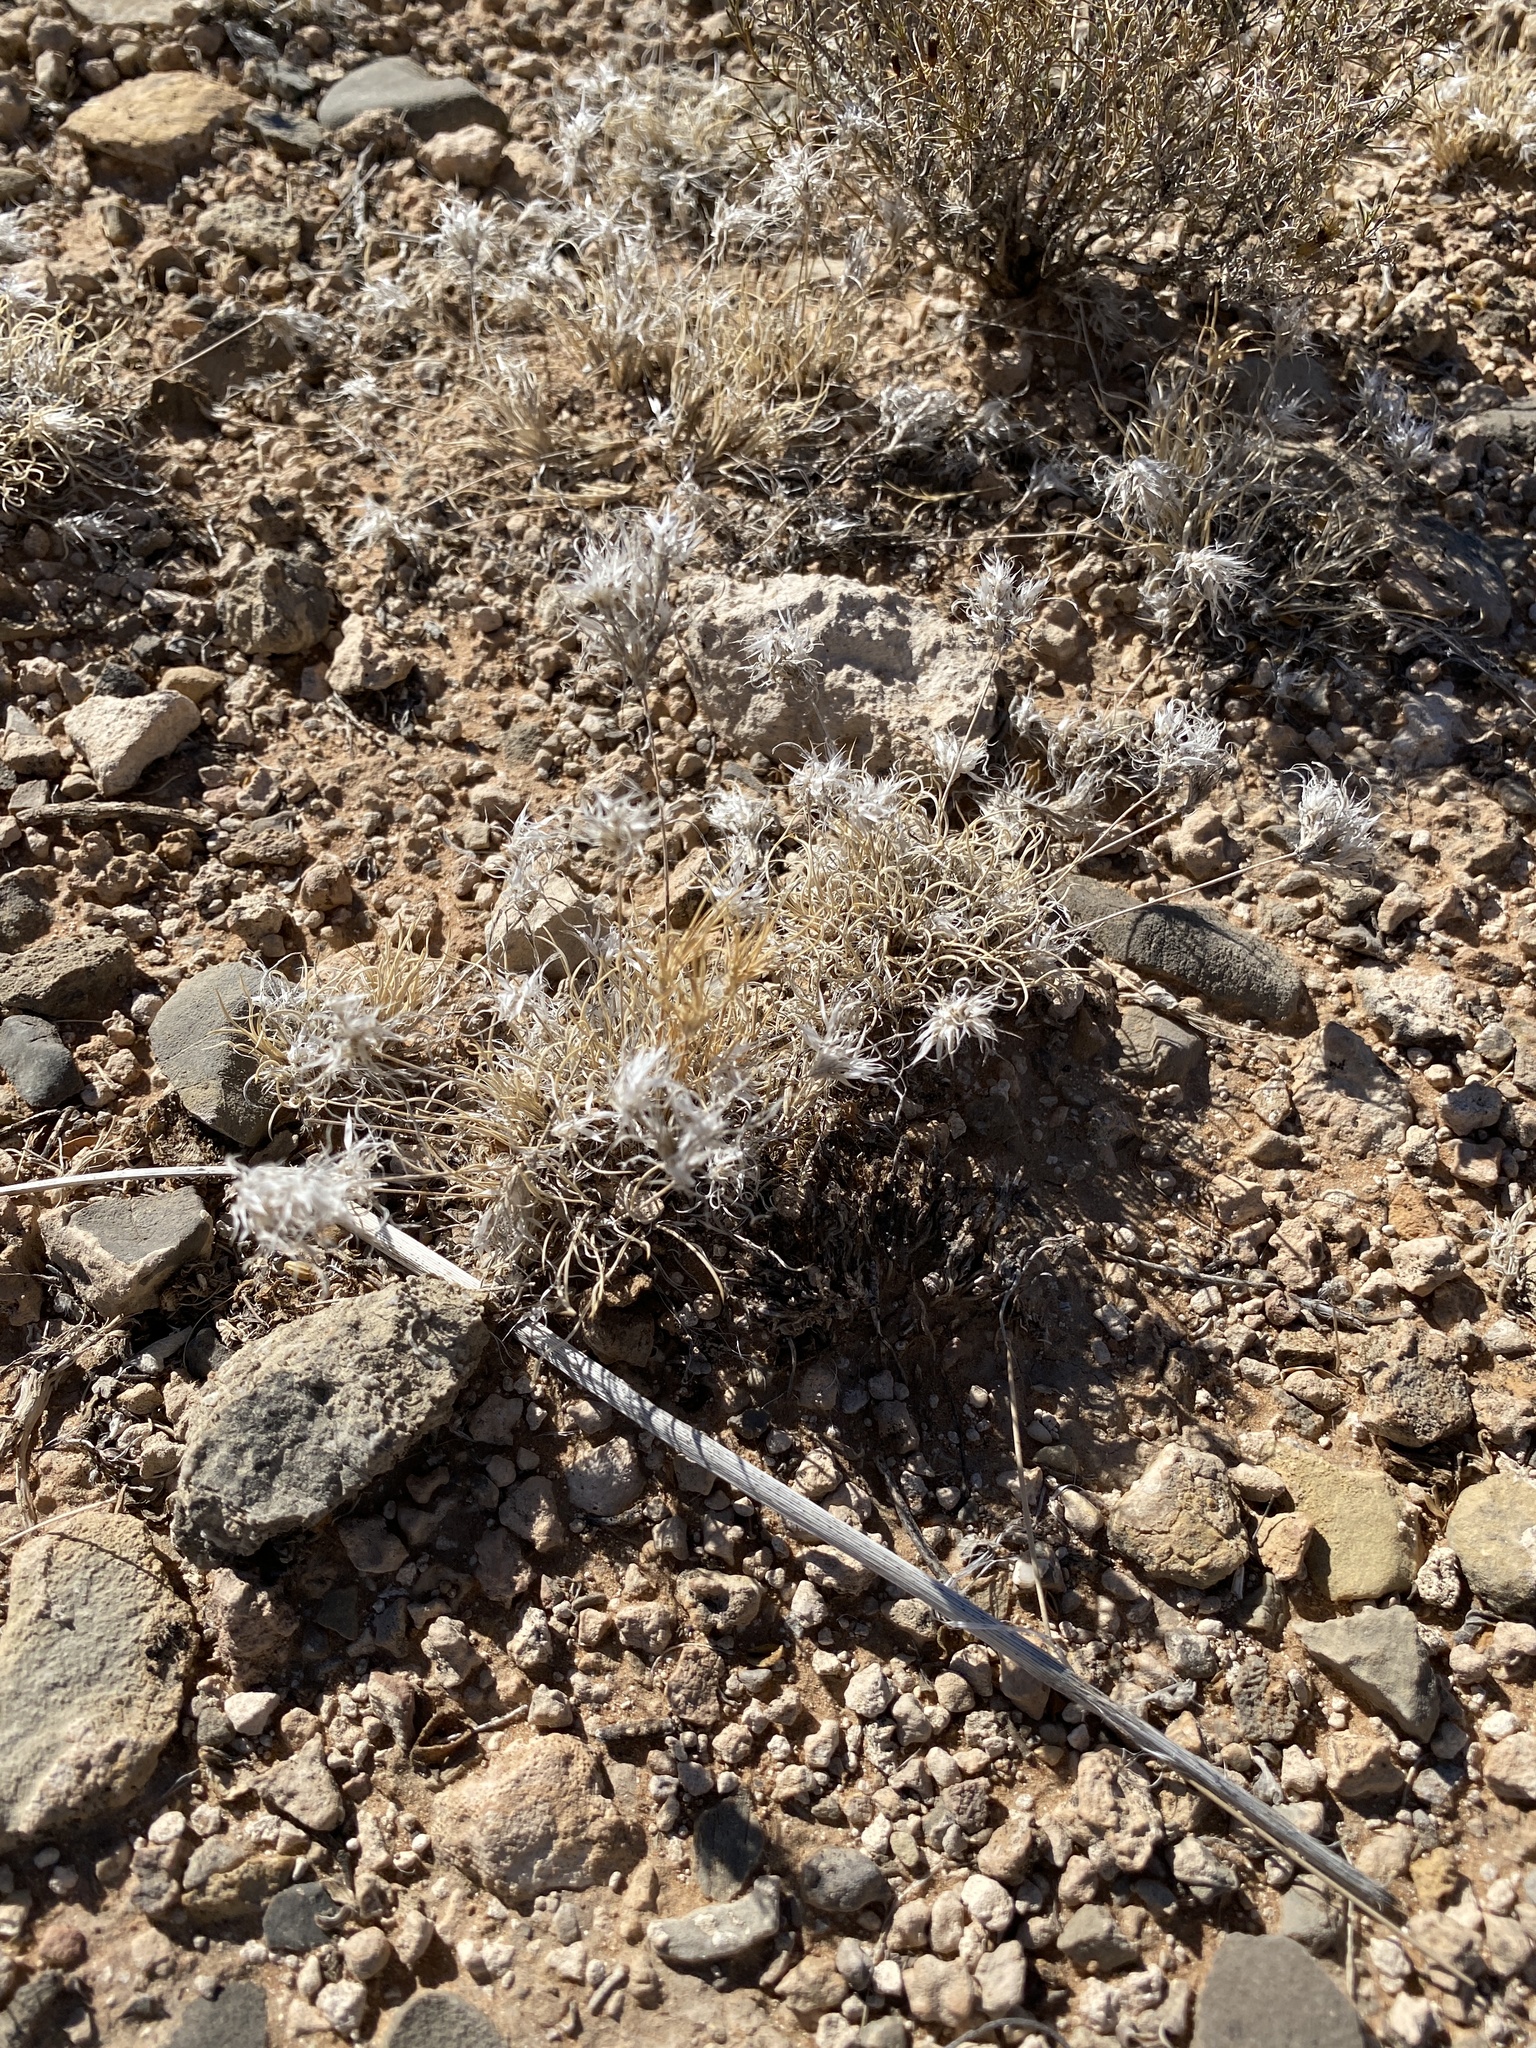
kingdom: Plantae
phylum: Tracheophyta
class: Liliopsida
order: Poales
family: Poaceae
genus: Dasyochloa
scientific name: Dasyochloa pulchella
